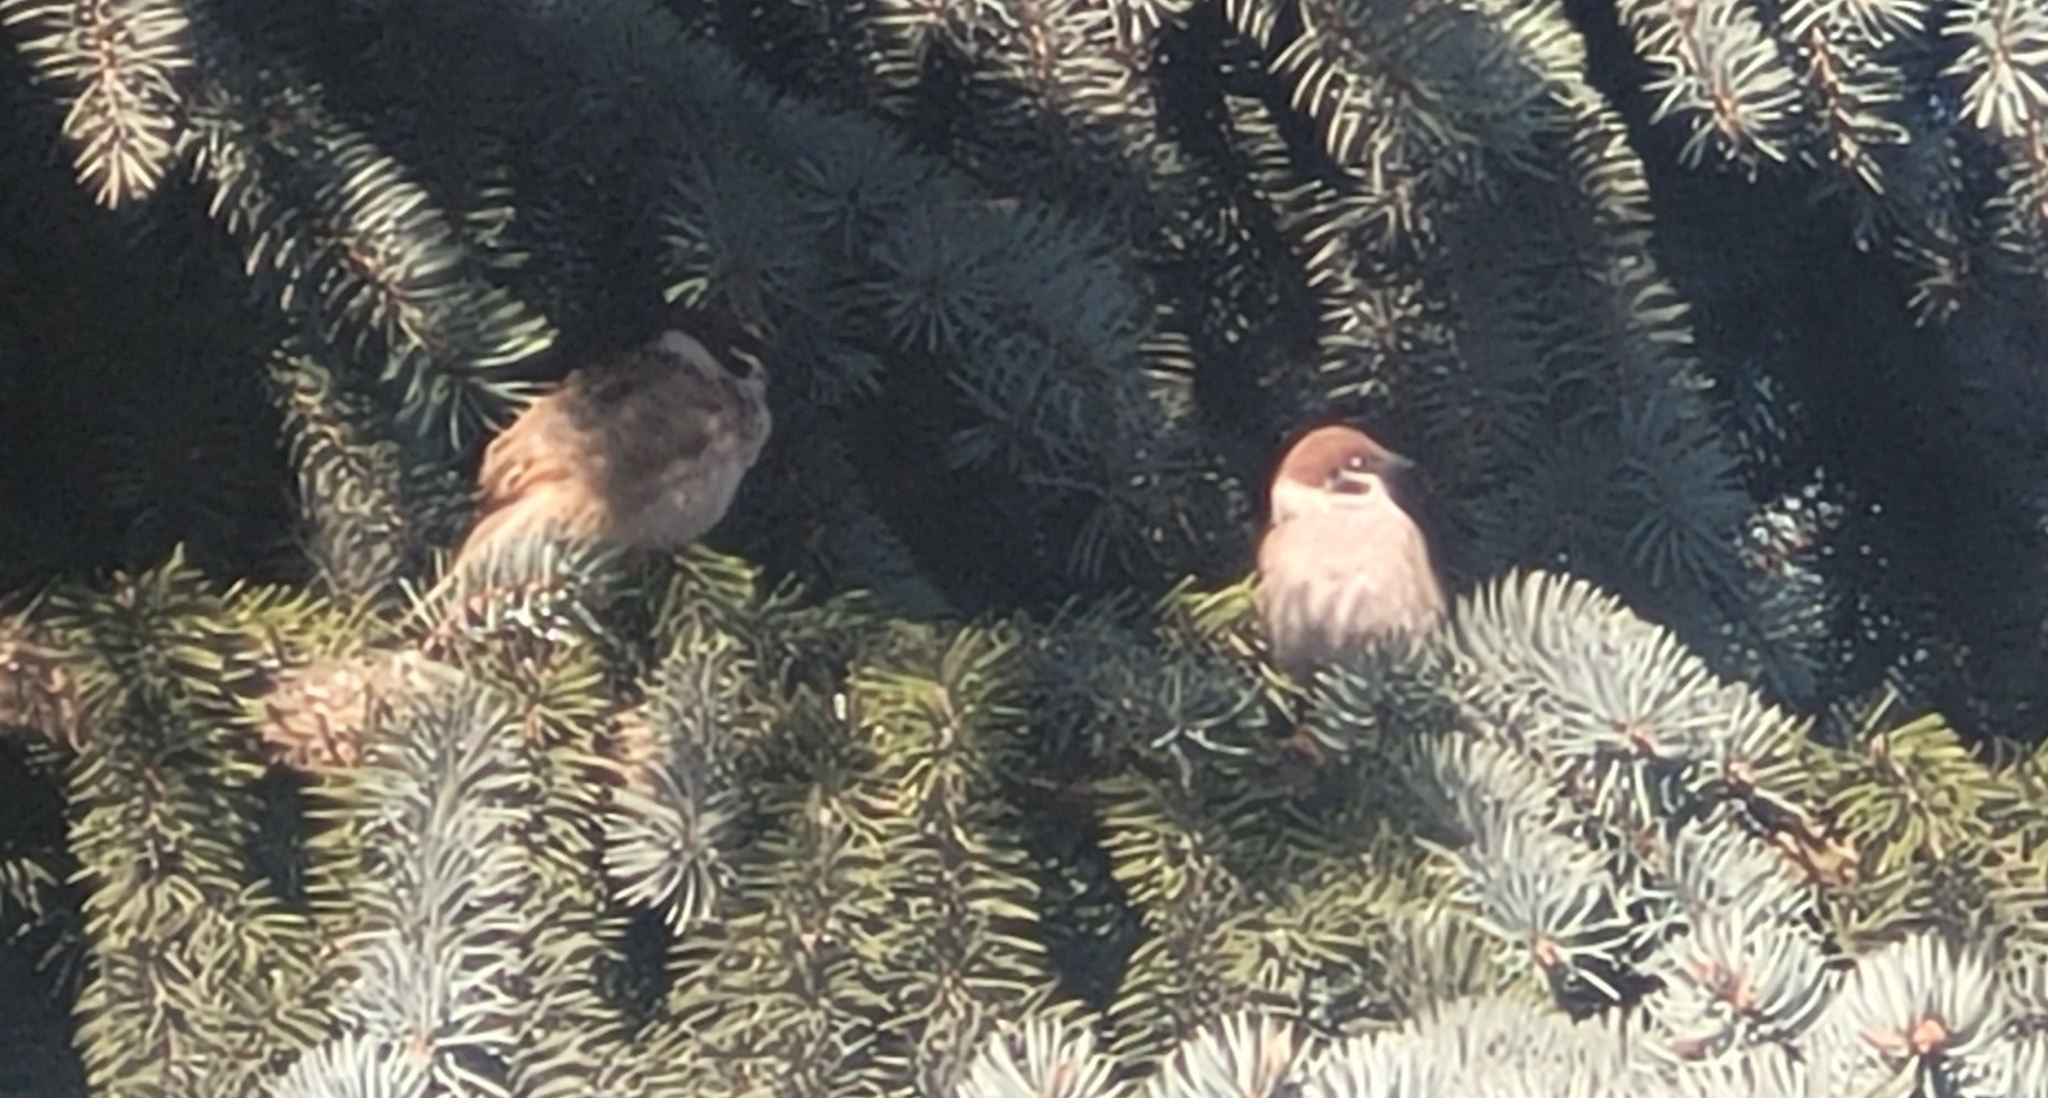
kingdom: Animalia
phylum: Chordata
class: Aves
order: Passeriformes
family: Passeridae
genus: Passer
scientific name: Passer montanus
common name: Eurasian tree sparrow
